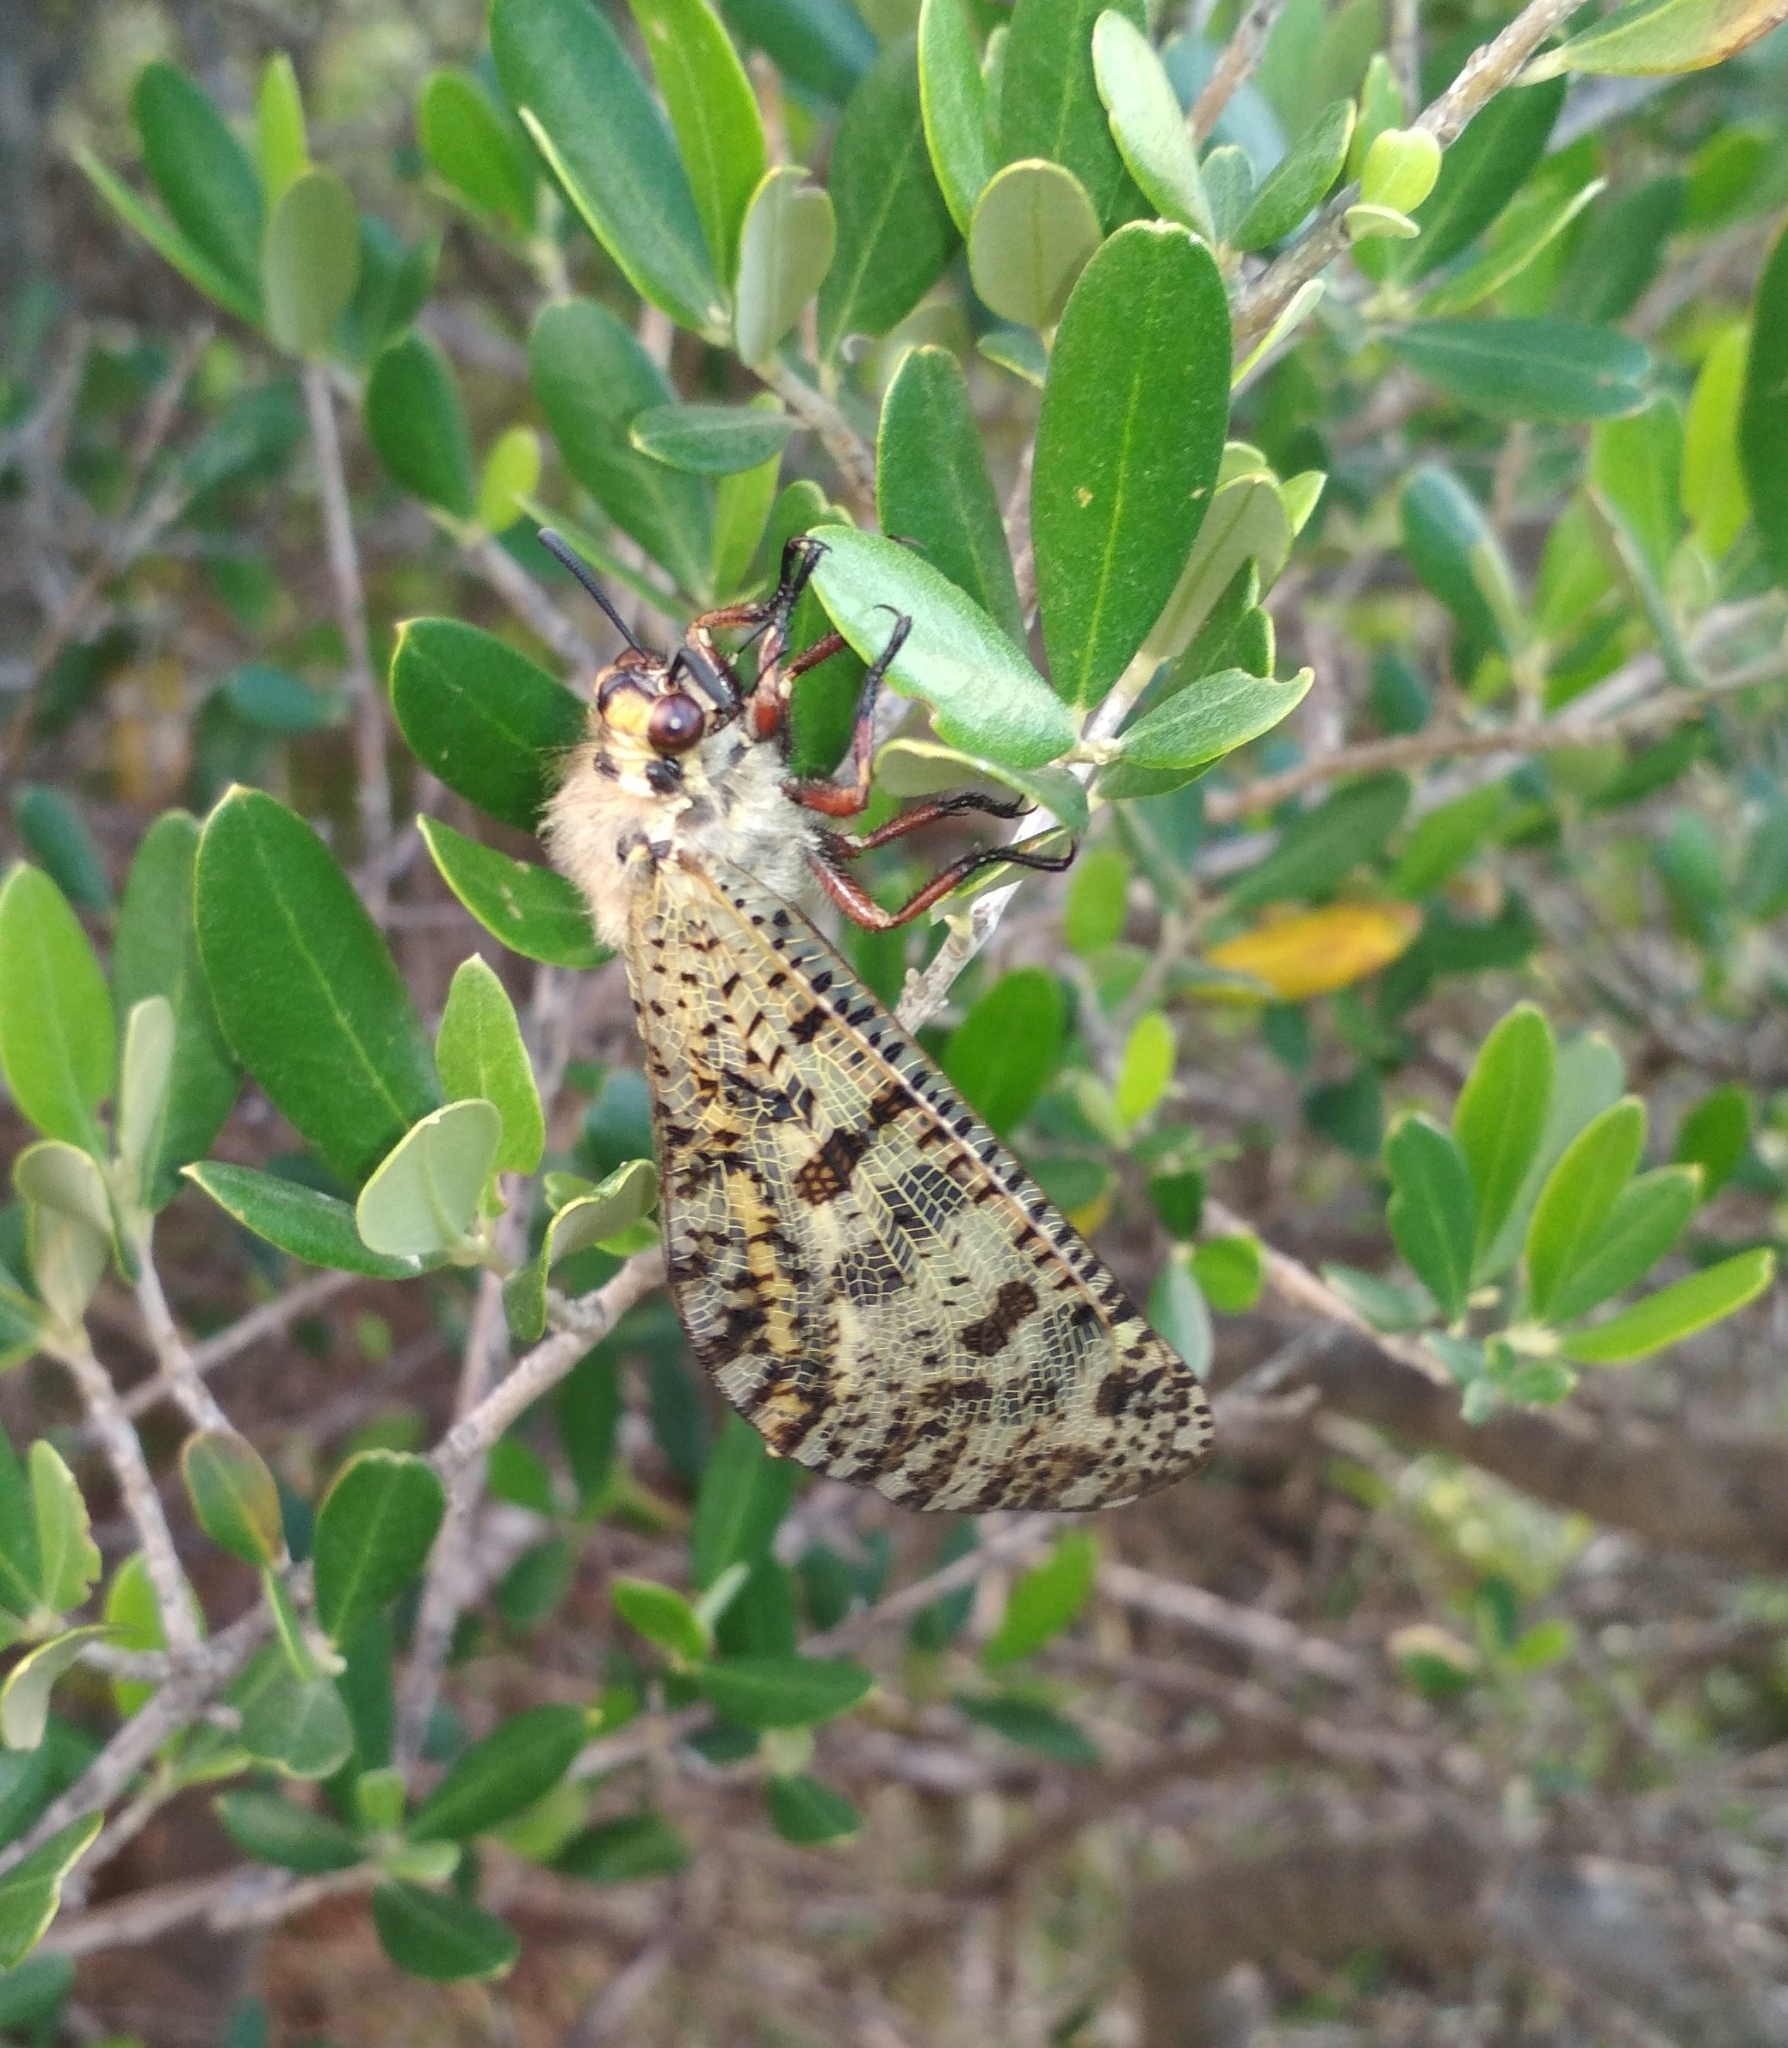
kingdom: Animalia
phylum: Arthropoda
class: Insecta
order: Neuroptera
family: Myrmeleontidae
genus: Palpares
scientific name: Palpares libelluloides
